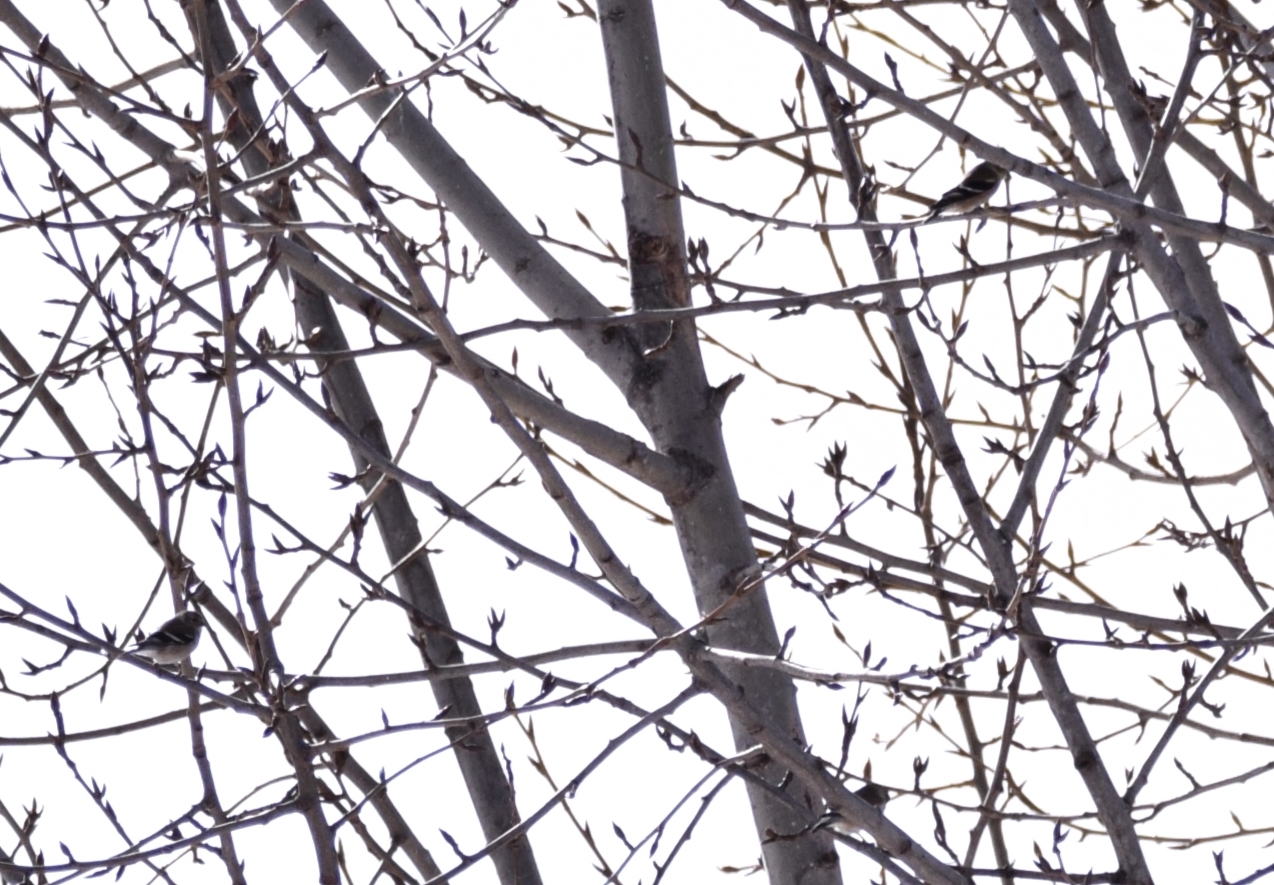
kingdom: Animalia
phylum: Chordata
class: Aves
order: Passeriformes
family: Fringillidae
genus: Spinus
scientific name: Spinus tristis
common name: American goldfinch
